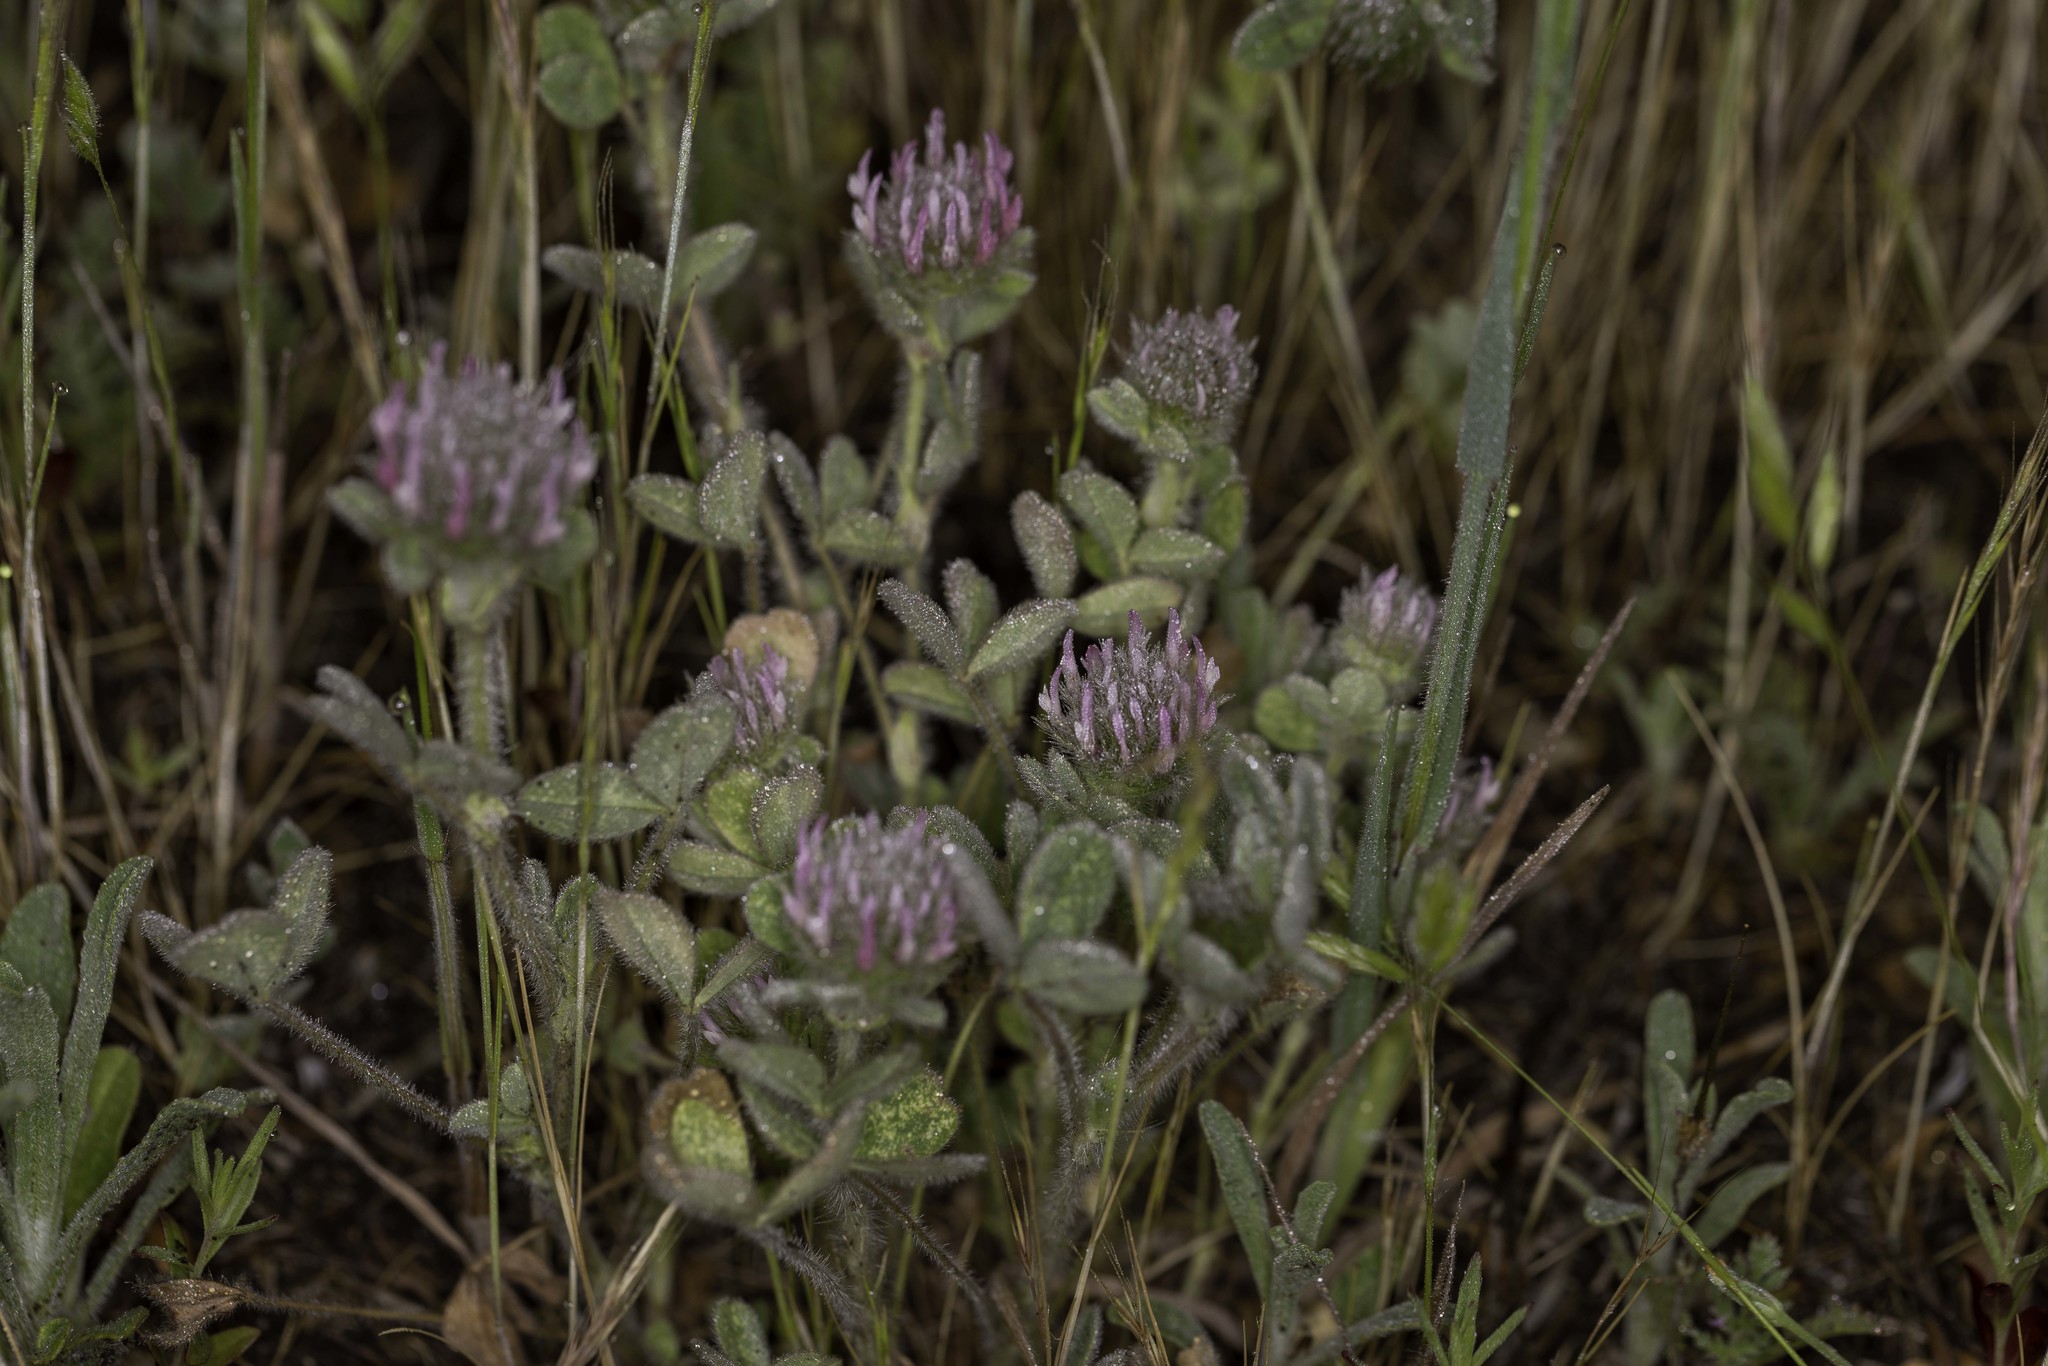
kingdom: Plantae
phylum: Tracheophyta
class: Magnoliopsida
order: Fabales
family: Fabaceae
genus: Trifolium
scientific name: Trifolium hirtum
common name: Rose clover
